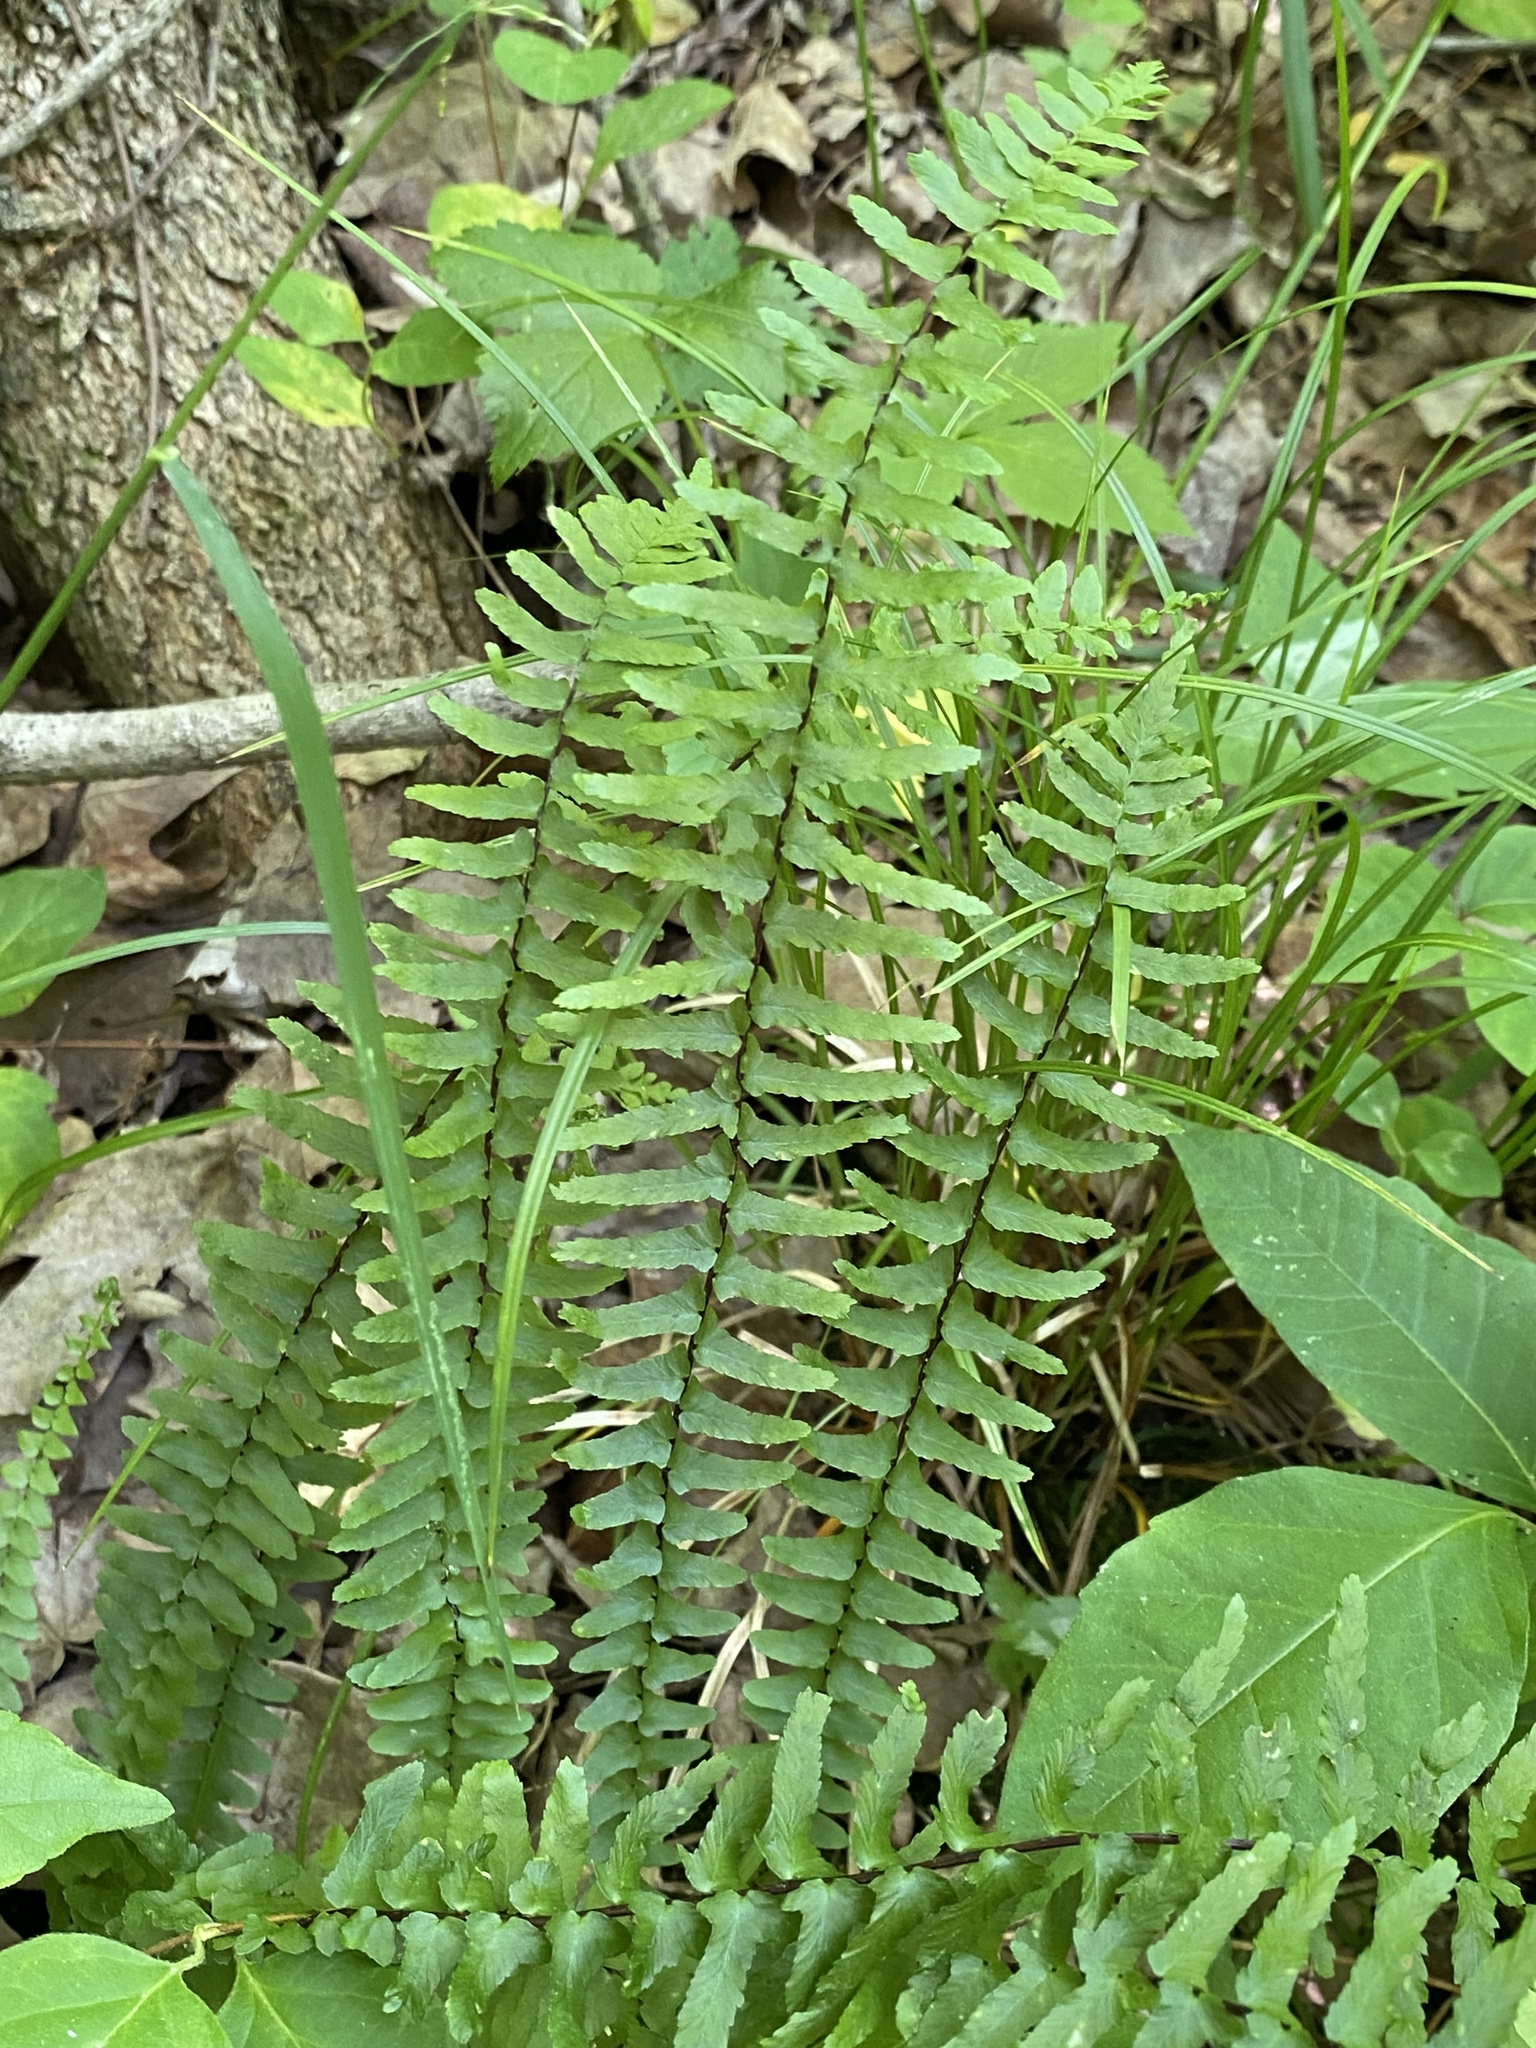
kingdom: Plantae
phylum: Tracheophyta
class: Polypodiopsida
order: Polypodiales
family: Aspleniaceae
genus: Asplenium
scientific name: Asplenium platyneuron
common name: Ebony spleenwort
